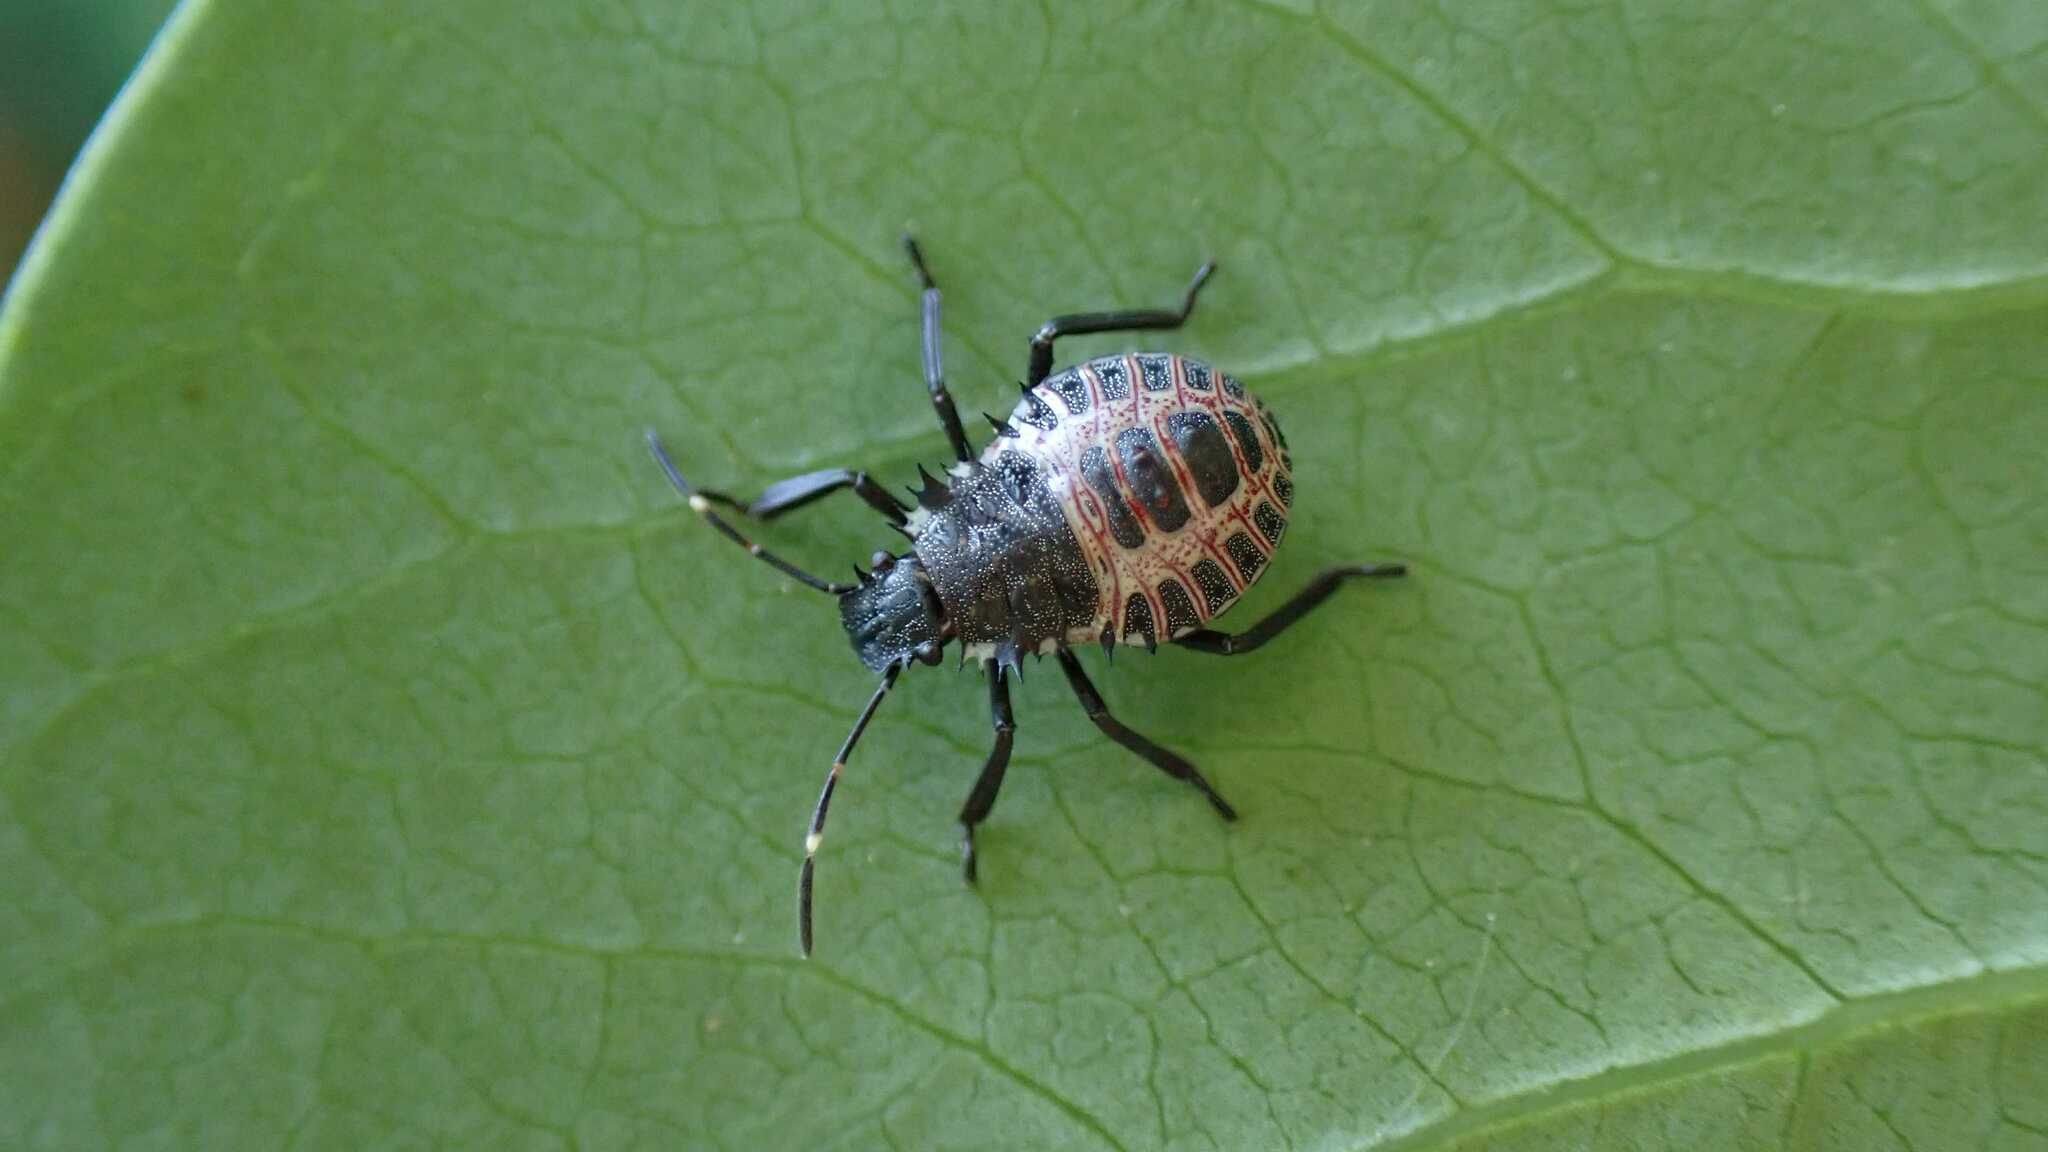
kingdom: Animalia
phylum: Arthropoda
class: Insecta
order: Hemiptera
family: Pentatomidae
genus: Halyomorpha
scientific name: Halyomorpha halys
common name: Brown marmorated stink bug
